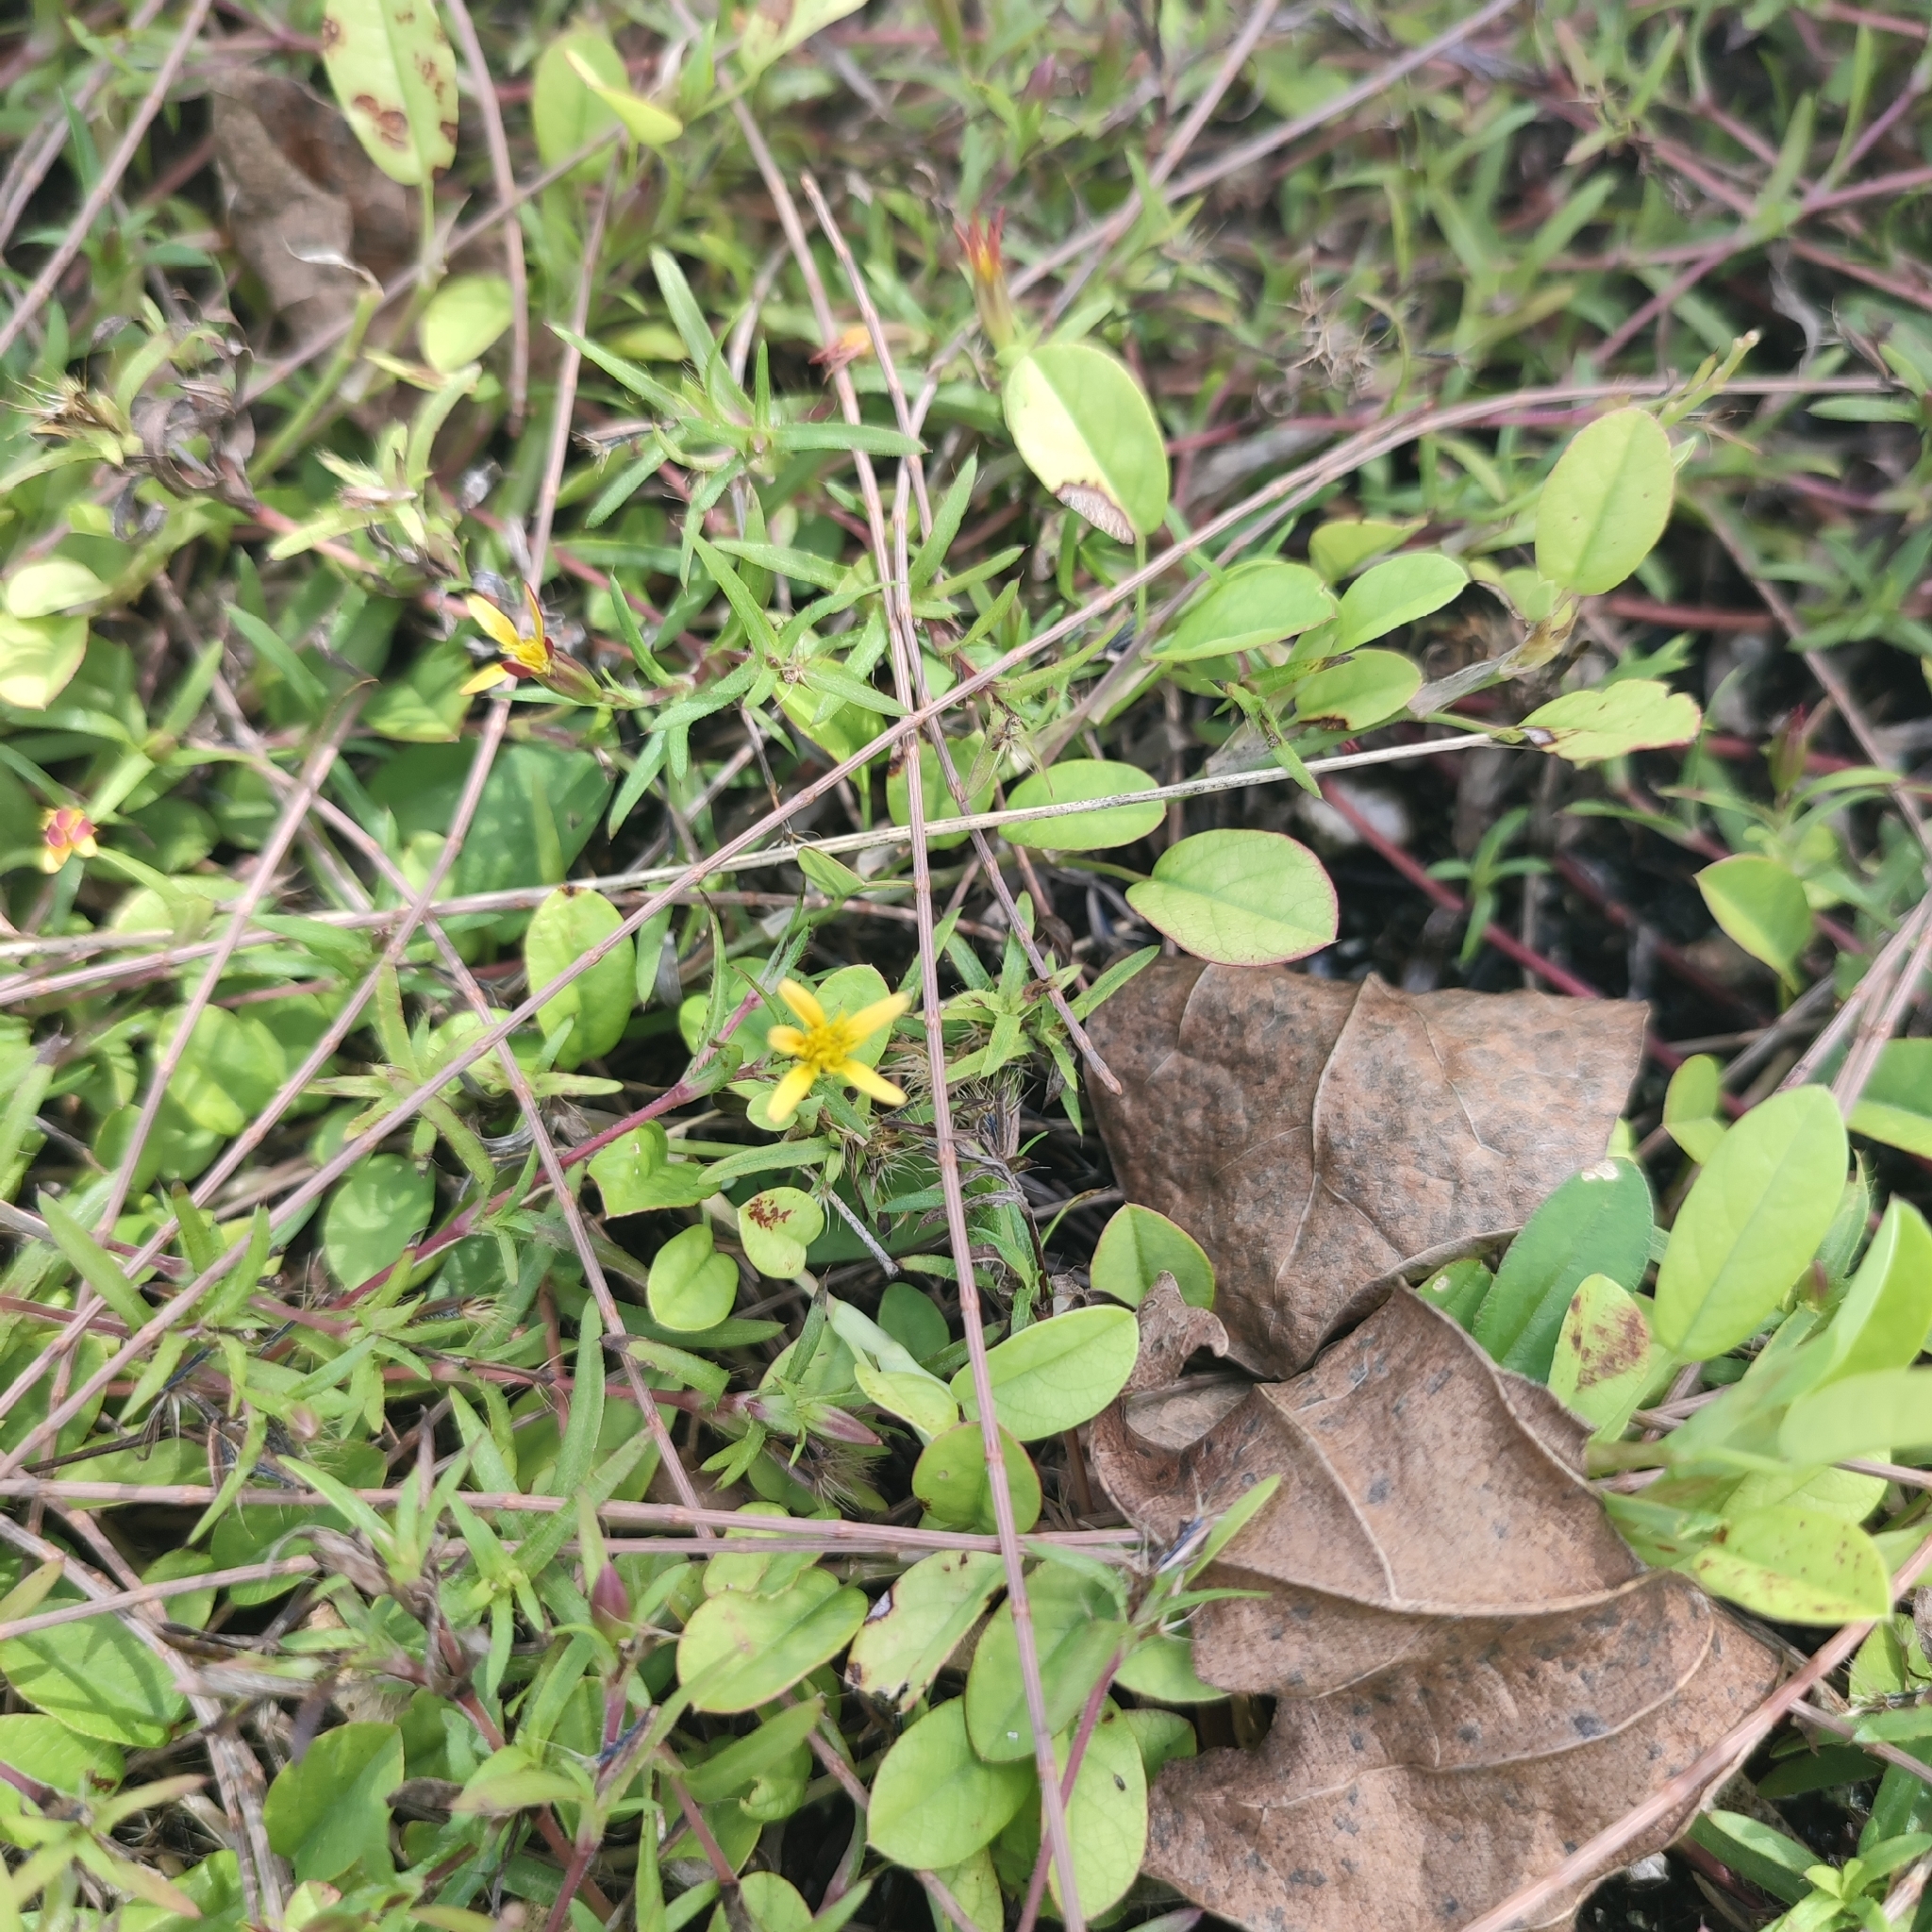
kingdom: Plantae
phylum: Tracheophyta
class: Magnoliopsida
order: Asterales
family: Asteraceae
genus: Pectis
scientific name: Pectis prostrata
